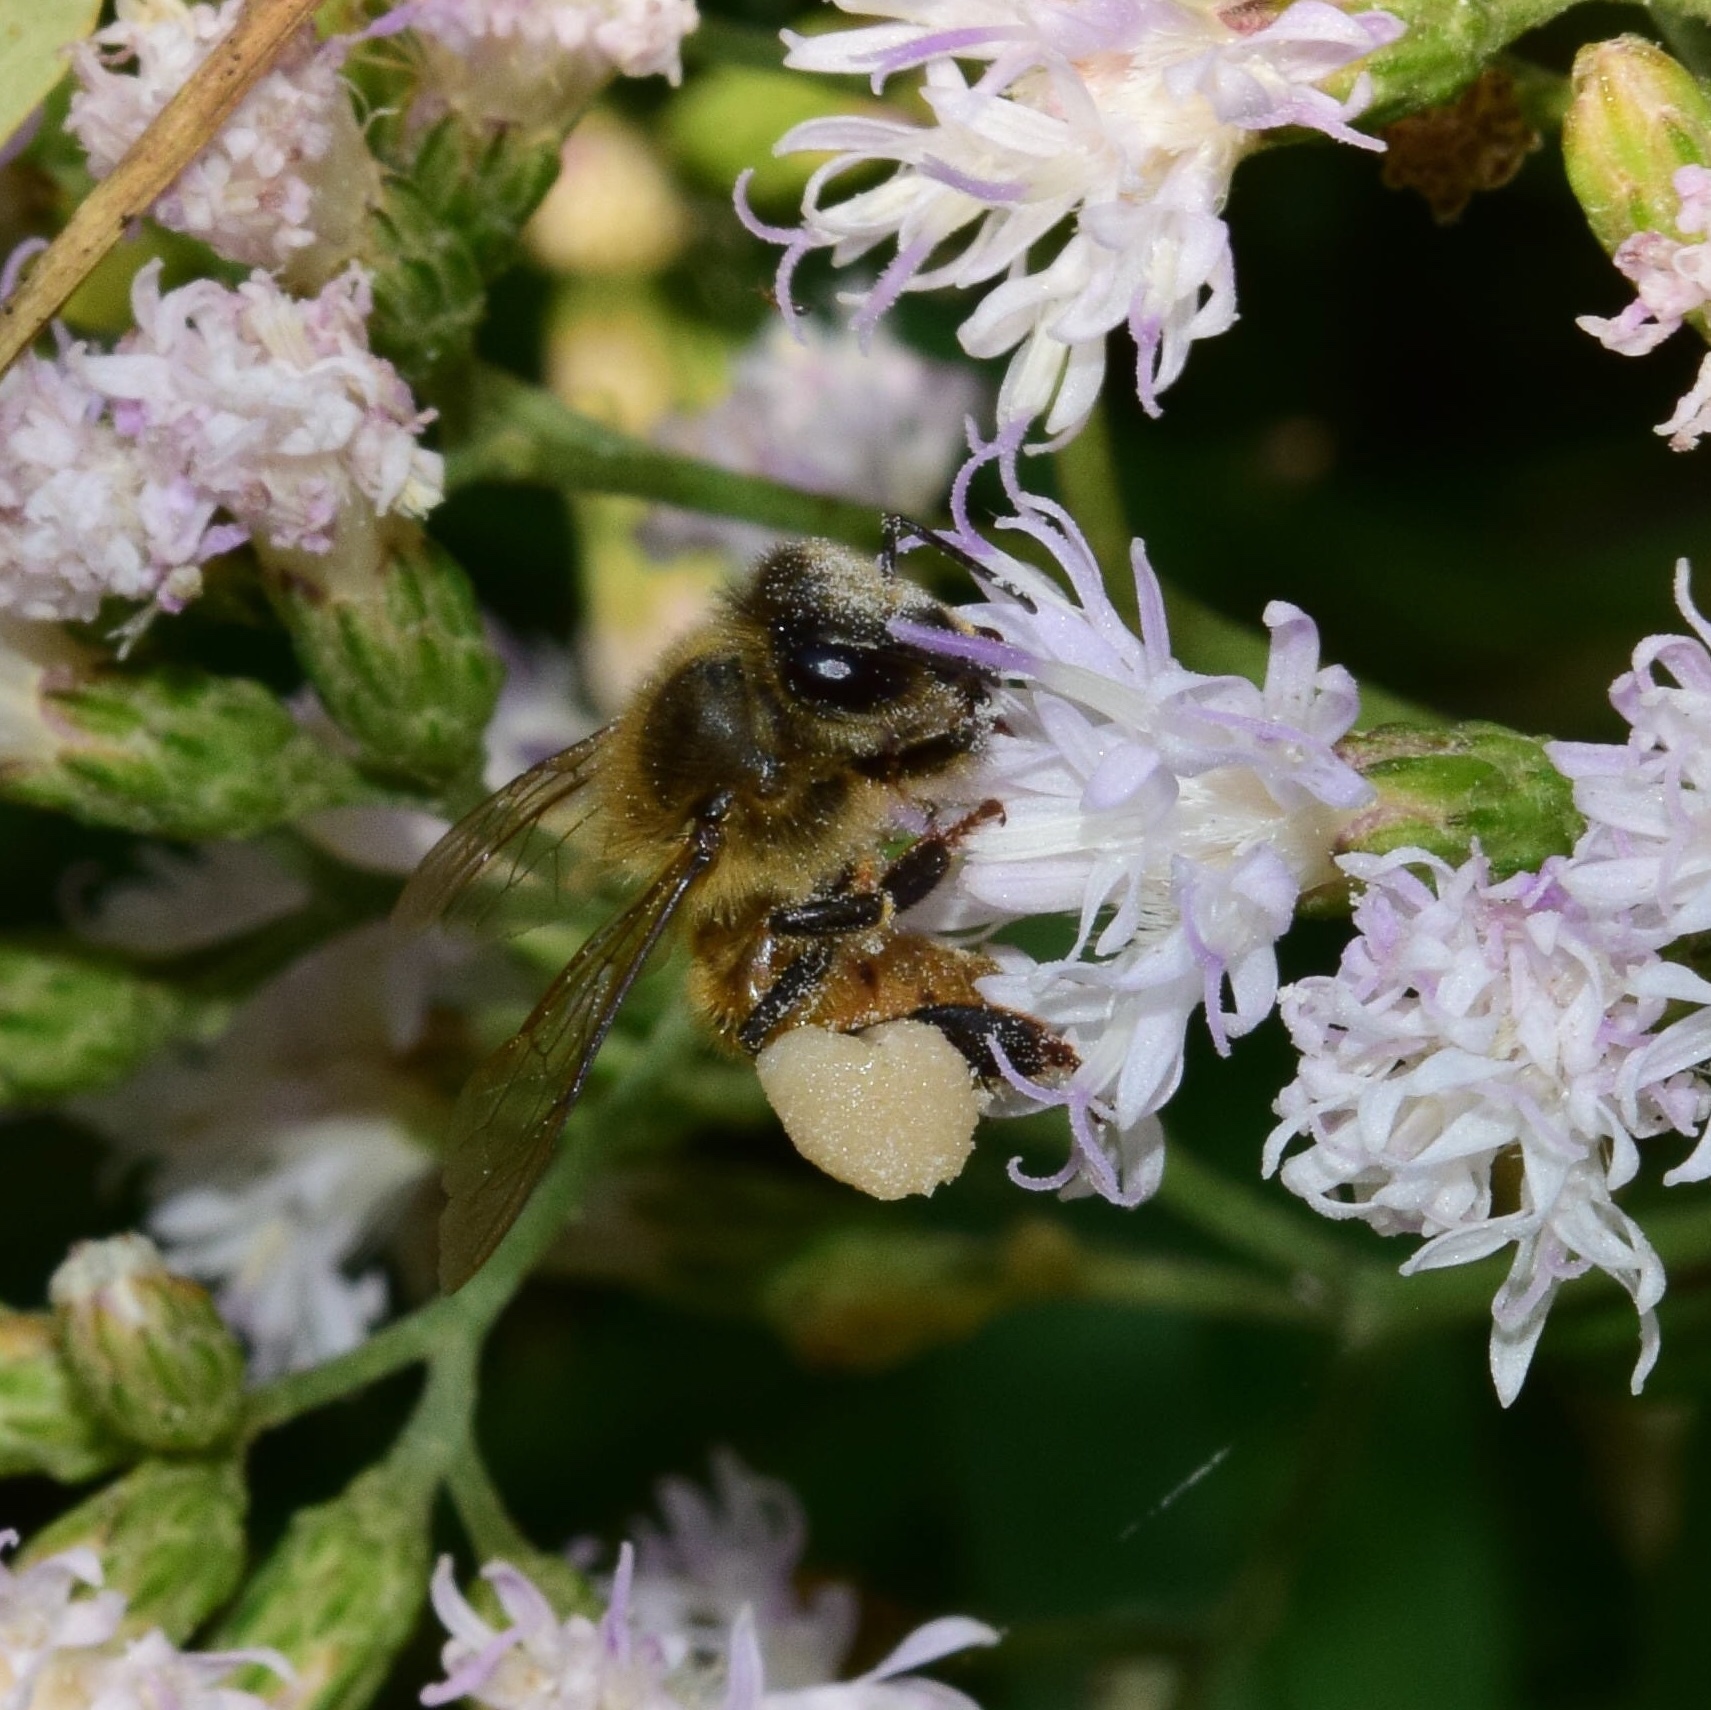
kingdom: Animalia
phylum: Arthropoda
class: Insecta
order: Hymenoptera
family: Apidae
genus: Apis
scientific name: Apis mellifera
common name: Honey bee
